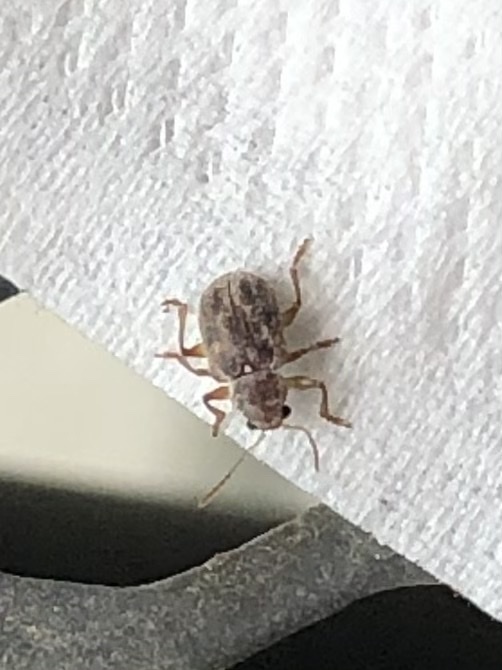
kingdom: Animalia
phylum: Arthropoda
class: Insecta
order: Coleoptera
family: Chrysomelidae
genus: Xanthonia
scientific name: Xanthonia picturata
